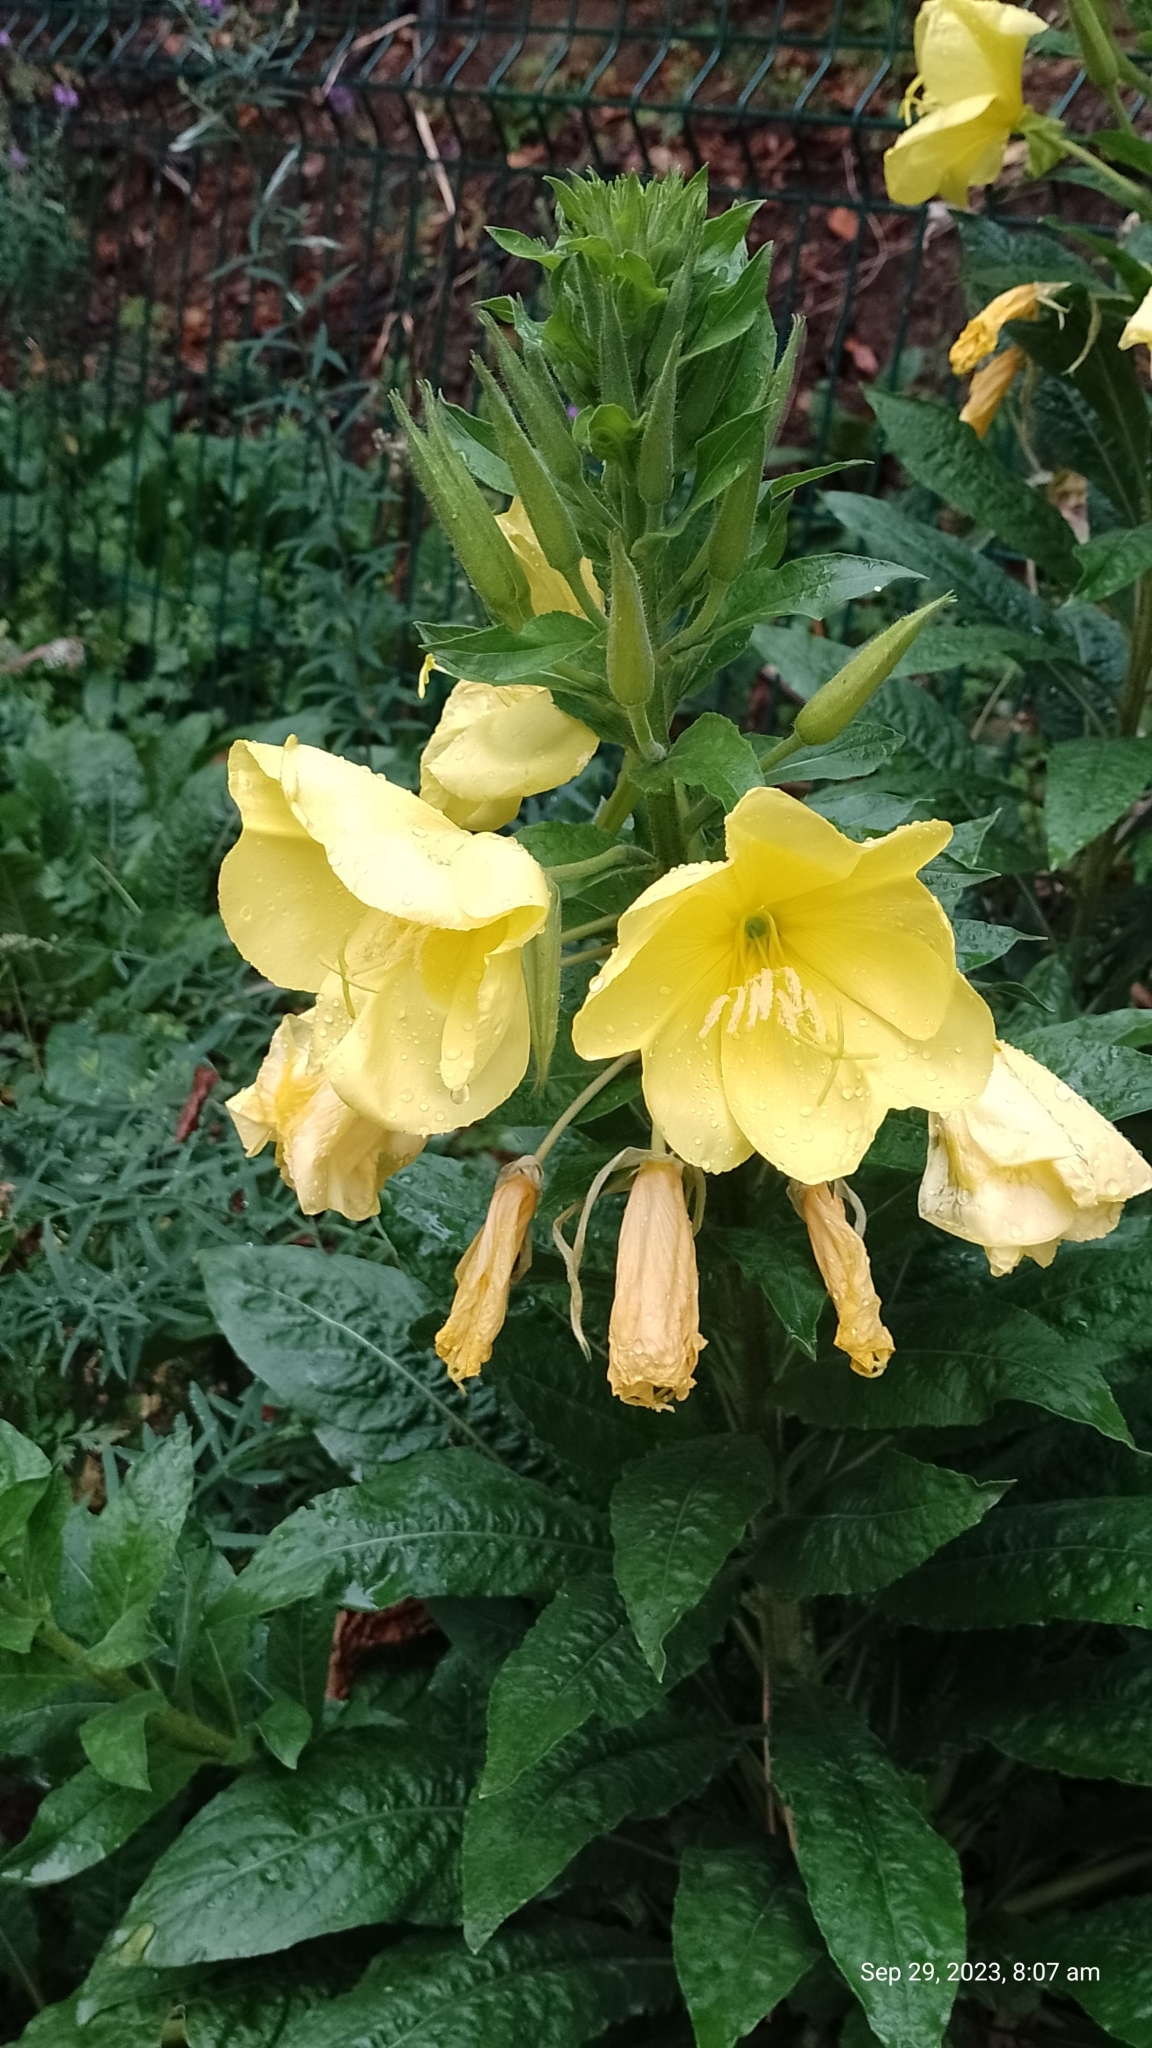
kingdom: Plantae
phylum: Tracheophyta
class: Magnoliopsida
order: Myrtales
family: Onagraceae
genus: Oenothera
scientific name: Oenothera glazioviana
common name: Large-flowered evening-primrose
